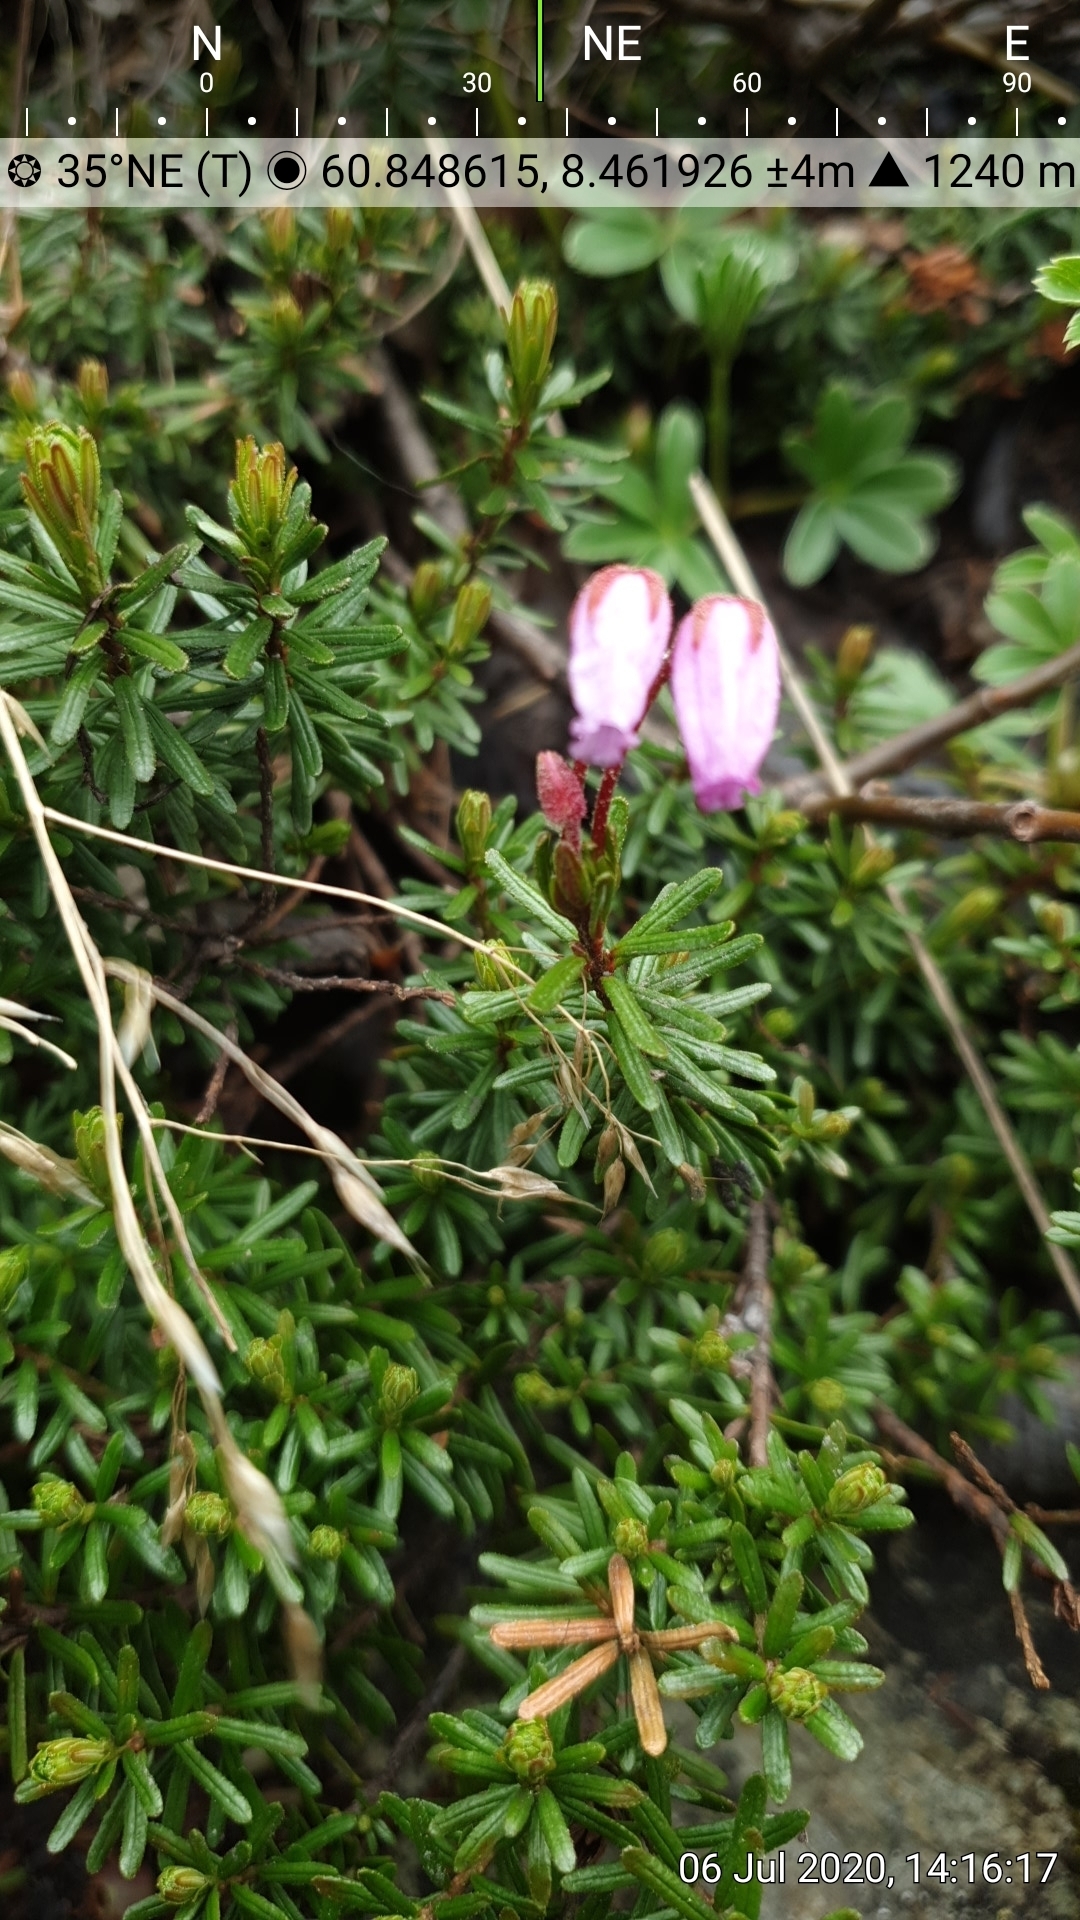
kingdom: Plantae
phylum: Tracheophyta
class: Magnoliopsida
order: Ericales
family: Ericaceae
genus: Phyllodoce
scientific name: Phyllodoce caerulea
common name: Blue heath
